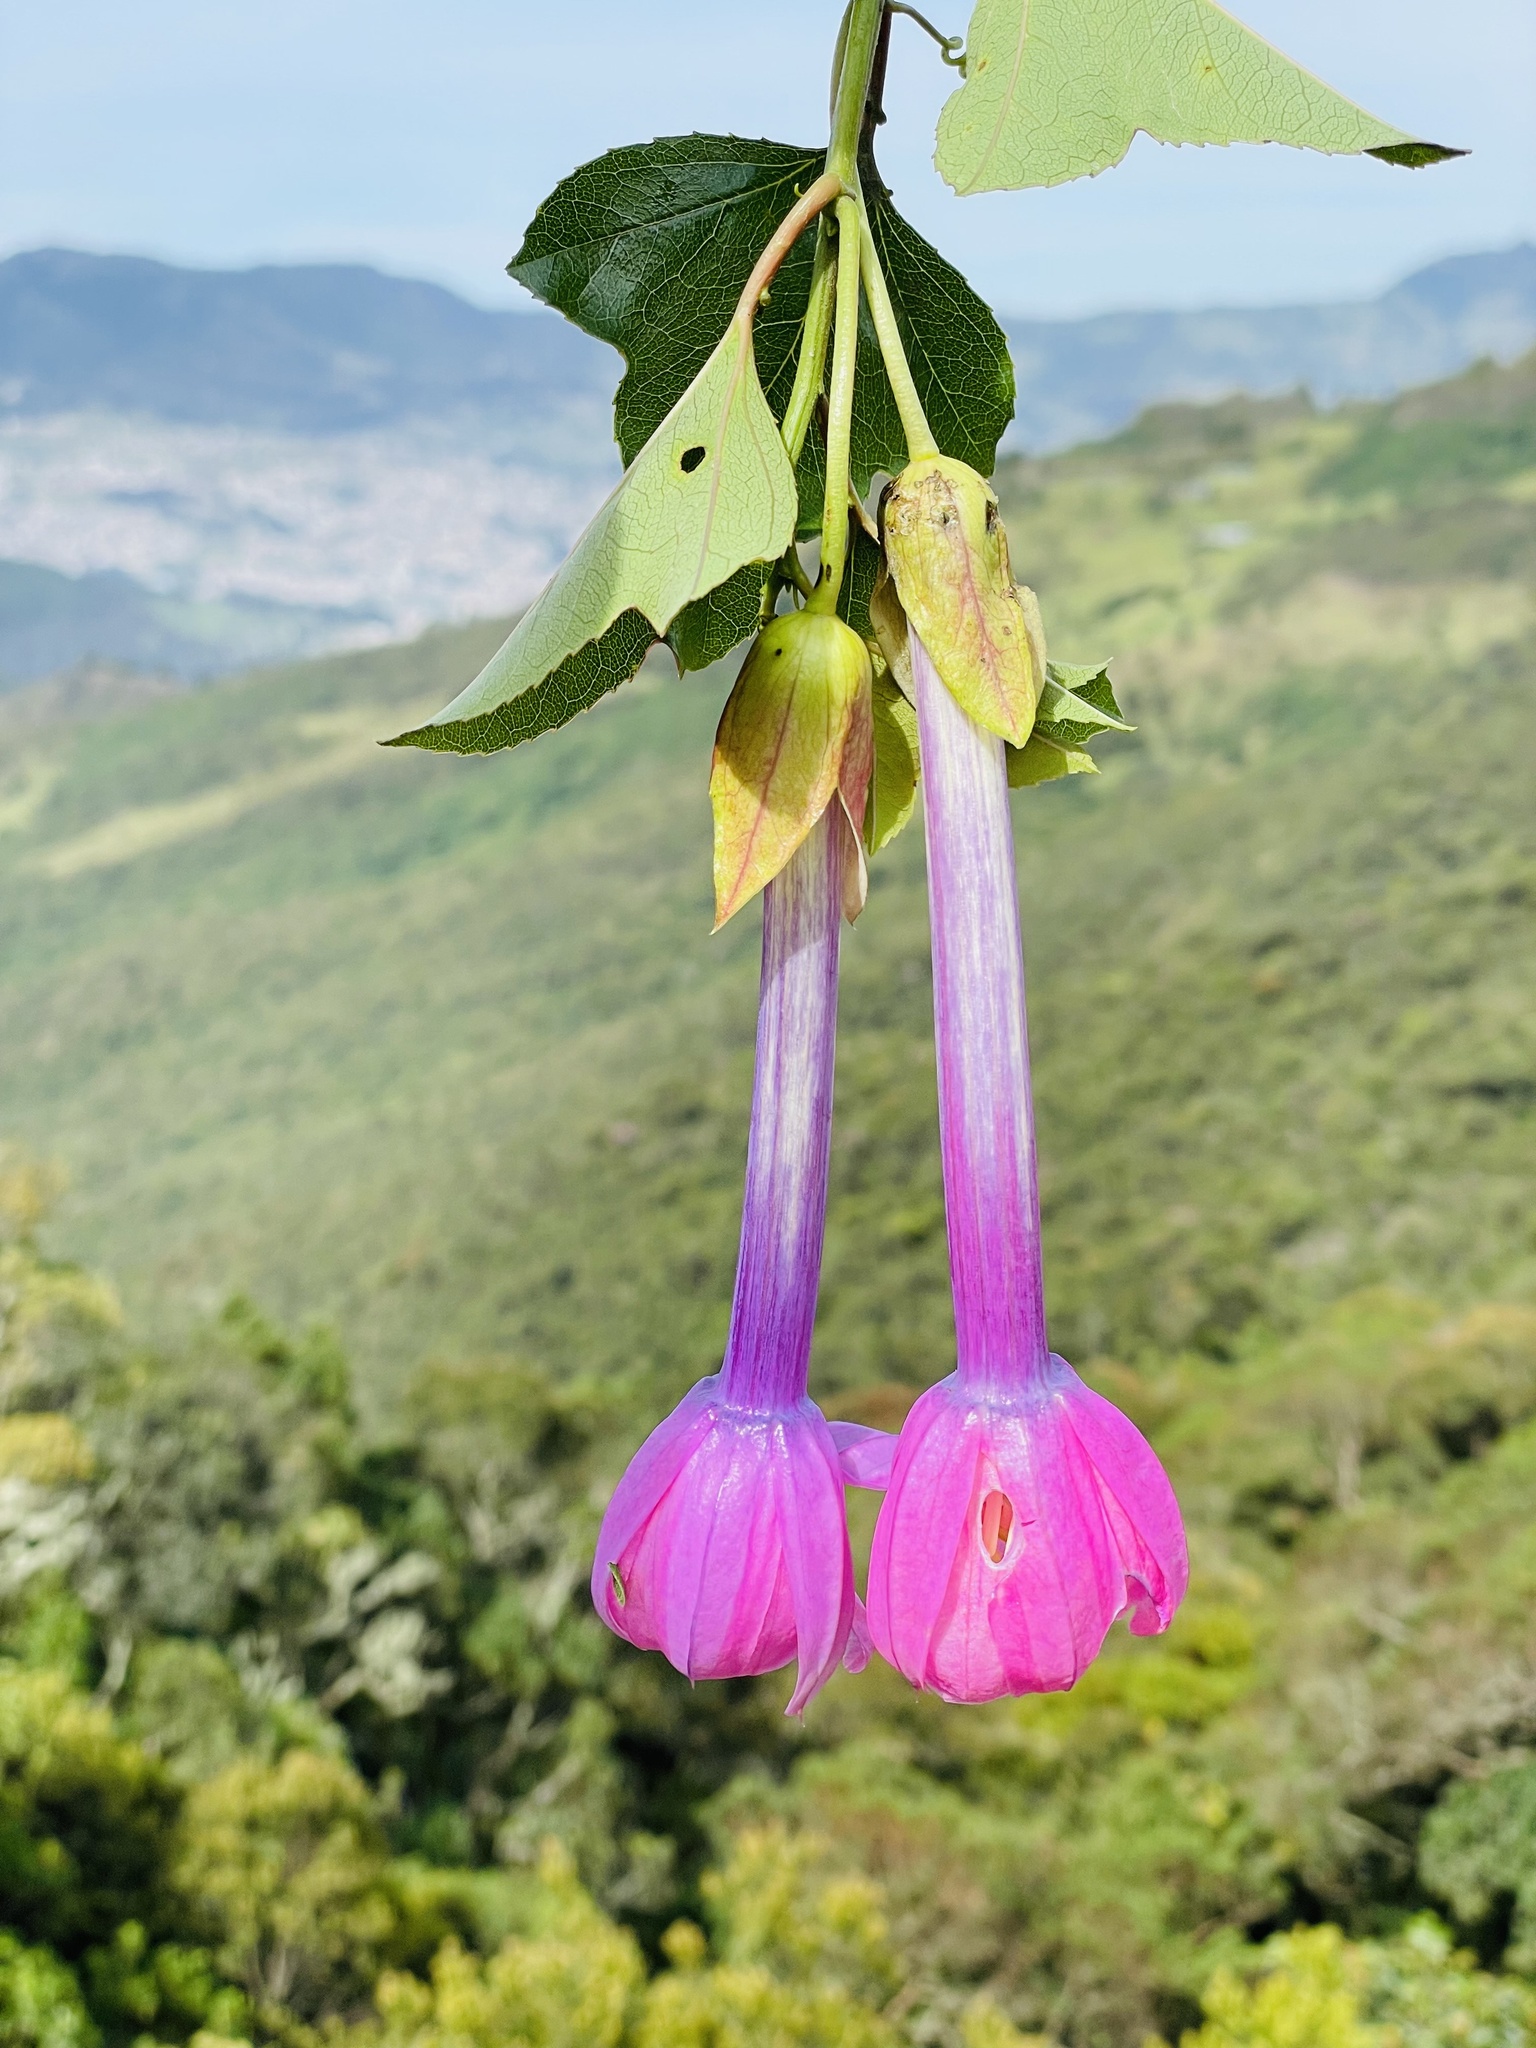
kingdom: Plantae
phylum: Tracheophyta
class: Magnoliopsida
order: Malpighiales
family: Passifloraceae
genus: Passiflora
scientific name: Passiflora cumbalensis
